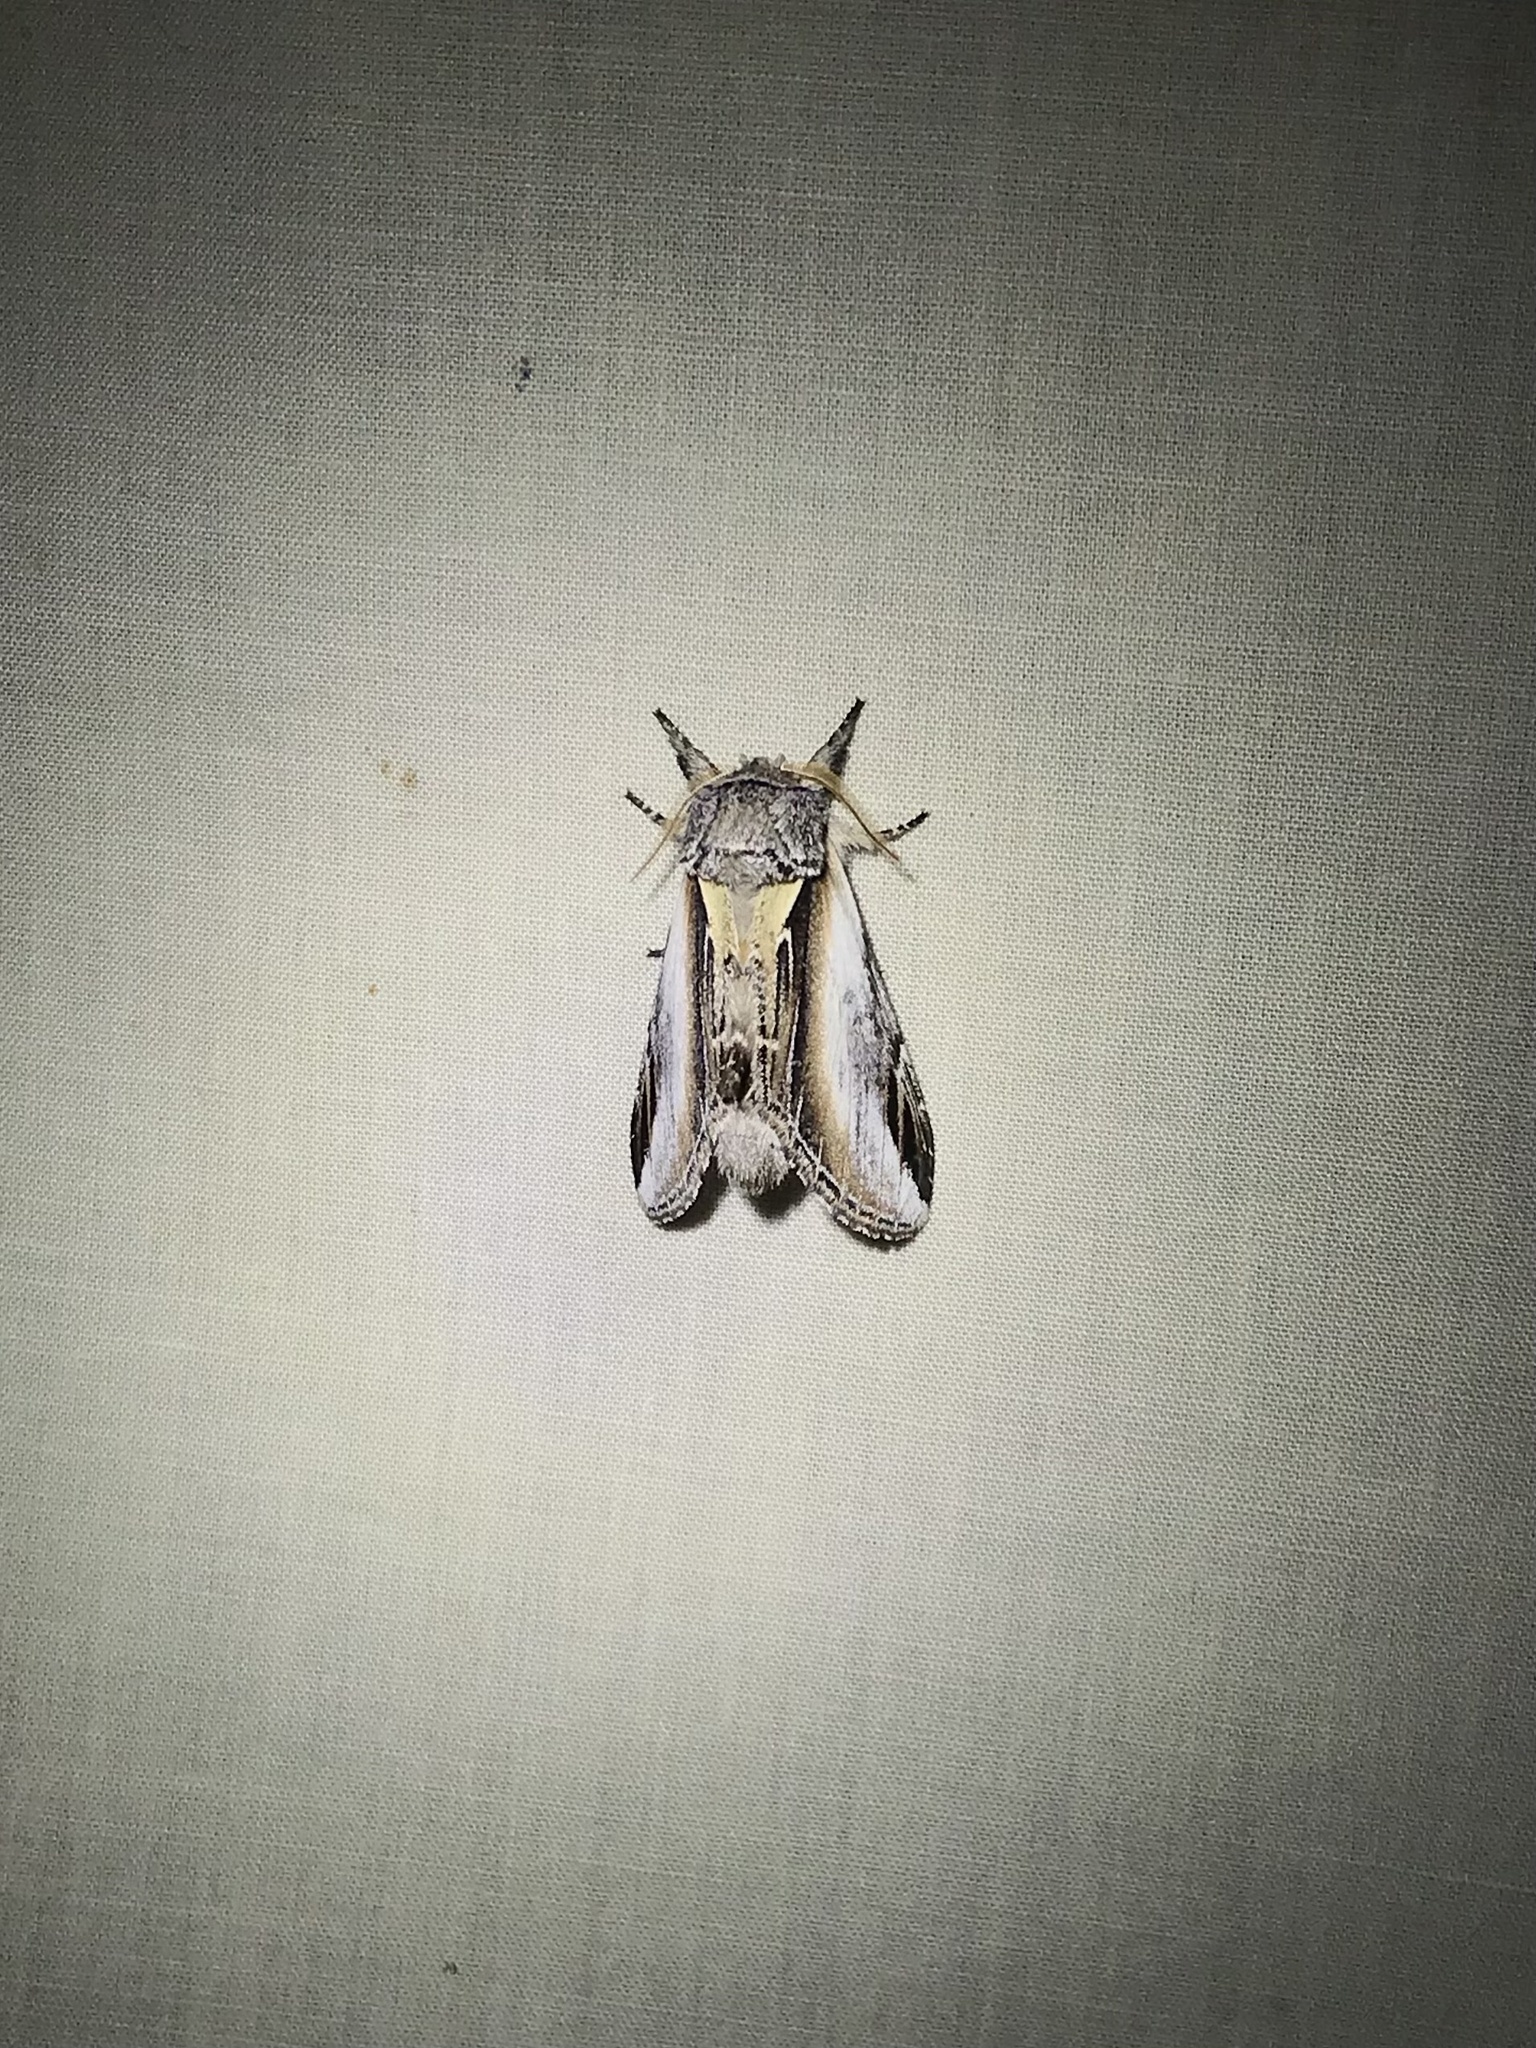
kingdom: Animalia
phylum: Arthropoda
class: Insecta
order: Lepidoptera
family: Notodontidae
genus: Pheosia
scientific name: Pheosia rimosa
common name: Black-rimmed prominent
